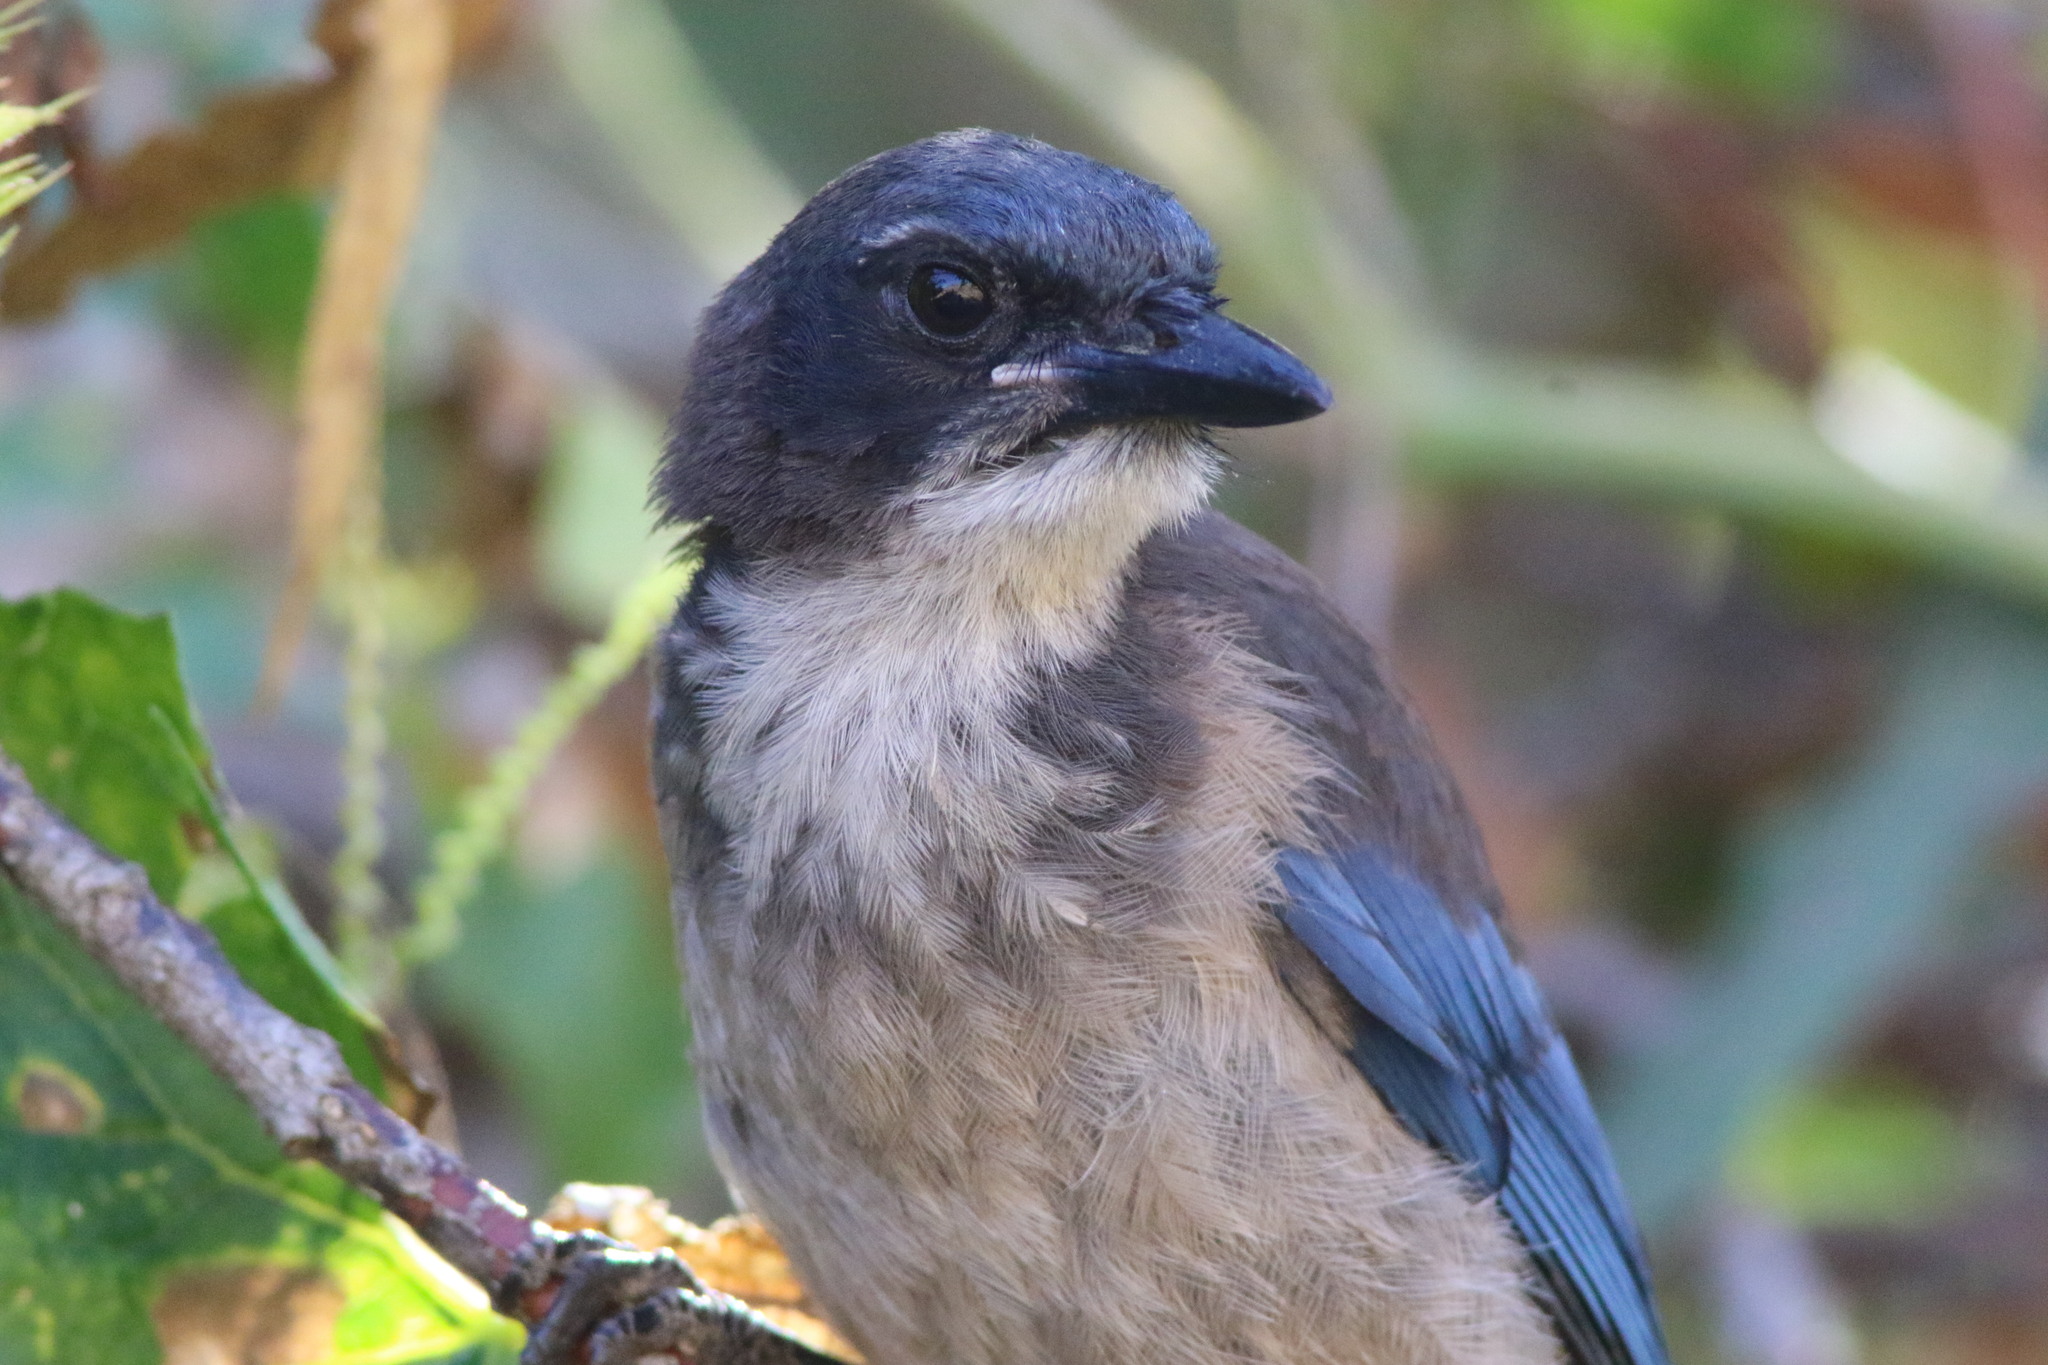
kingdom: Animalia
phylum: Chordata
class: Aves
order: Passeriformes
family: Corvidae
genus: Aphelocoma
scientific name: Aphelocoma insularis
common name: Island scrub-jay
